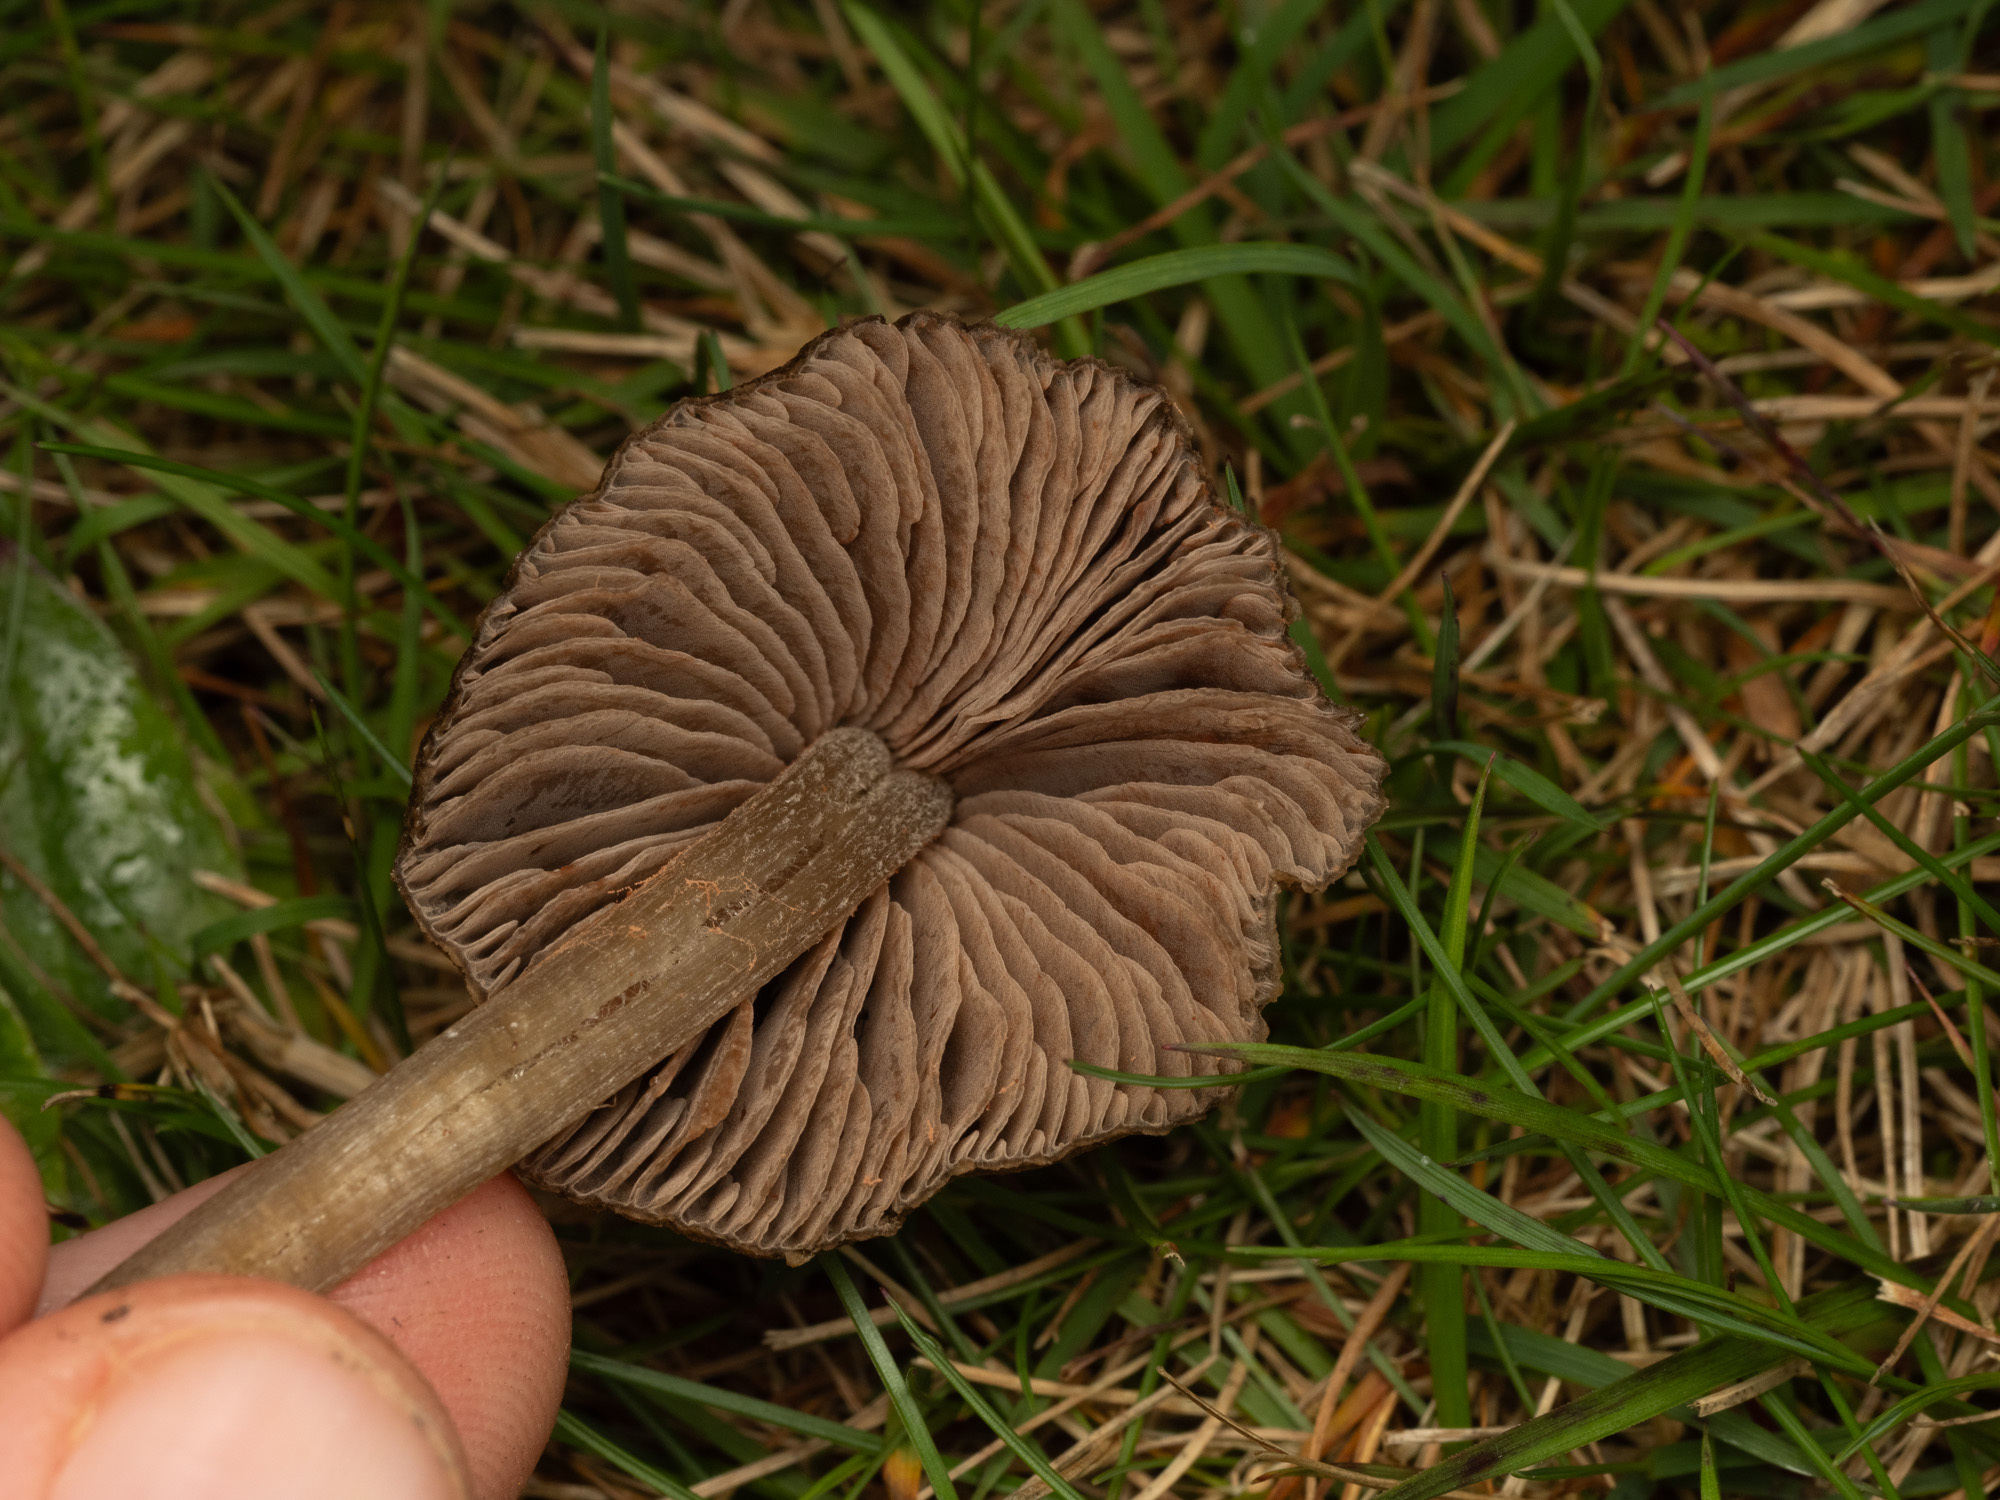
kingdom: Fungi
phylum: Basidiomycota
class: Agaricomycetes
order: Agaricales
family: Entolomataceae
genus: Entoloma
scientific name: Entoloma perzonatum
